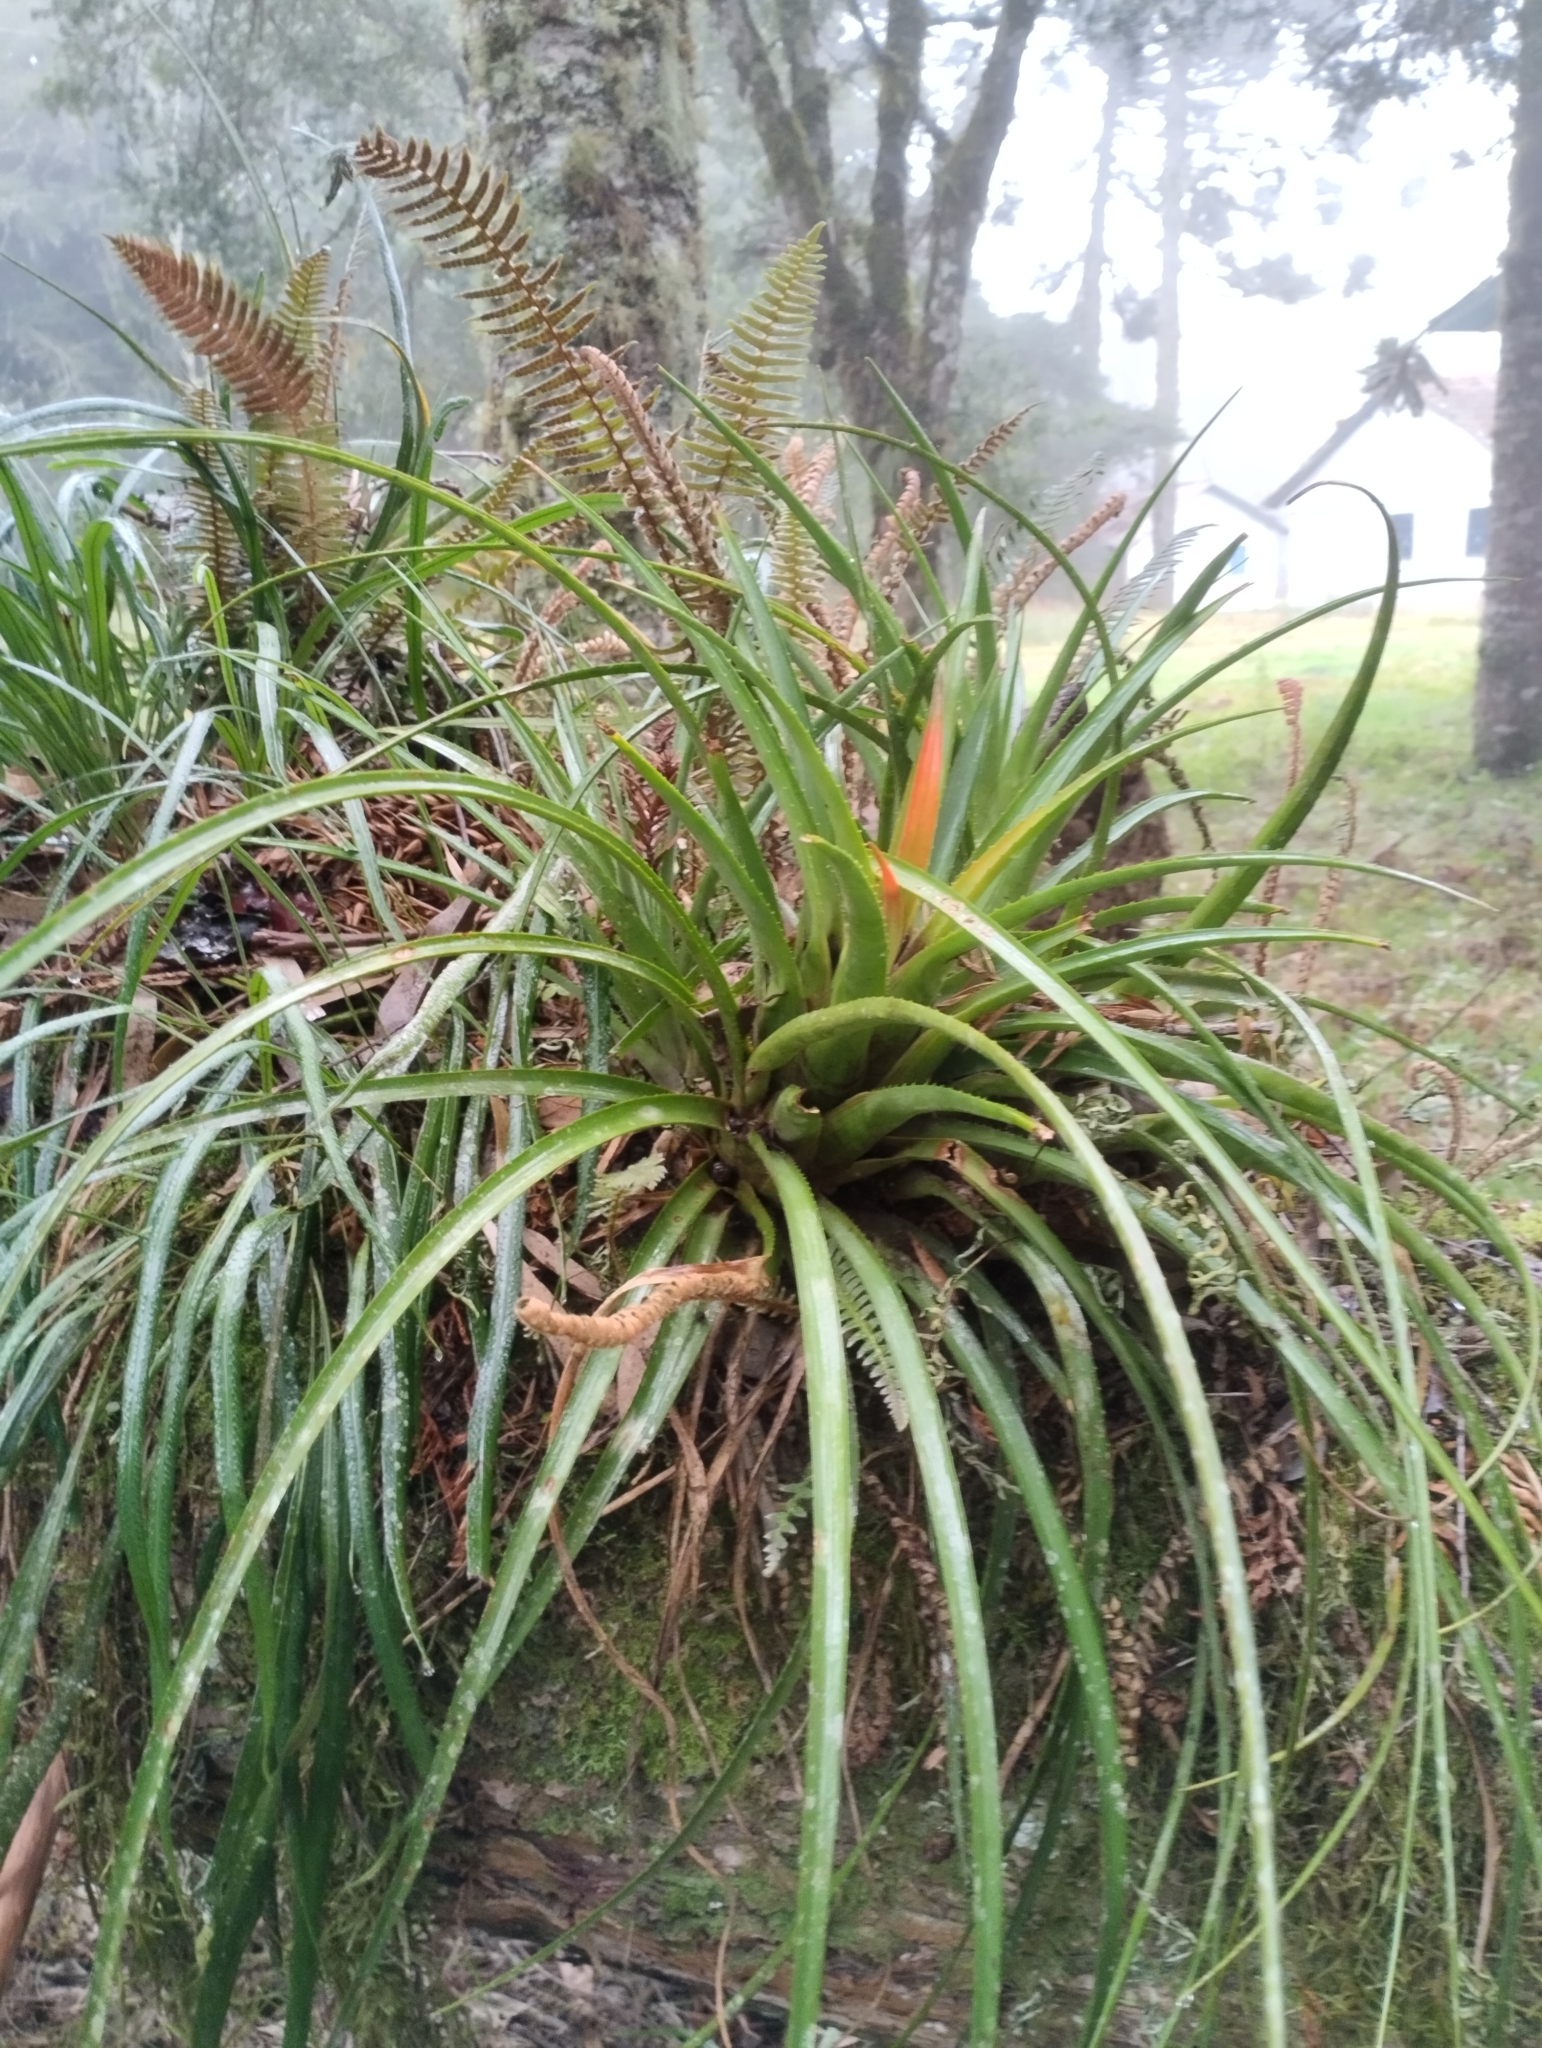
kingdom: Plantae
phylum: Tracheophyta
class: Liliopsida
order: Poales
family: Bromeliaceae
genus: Aechmea
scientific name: Aechmea recurvata
